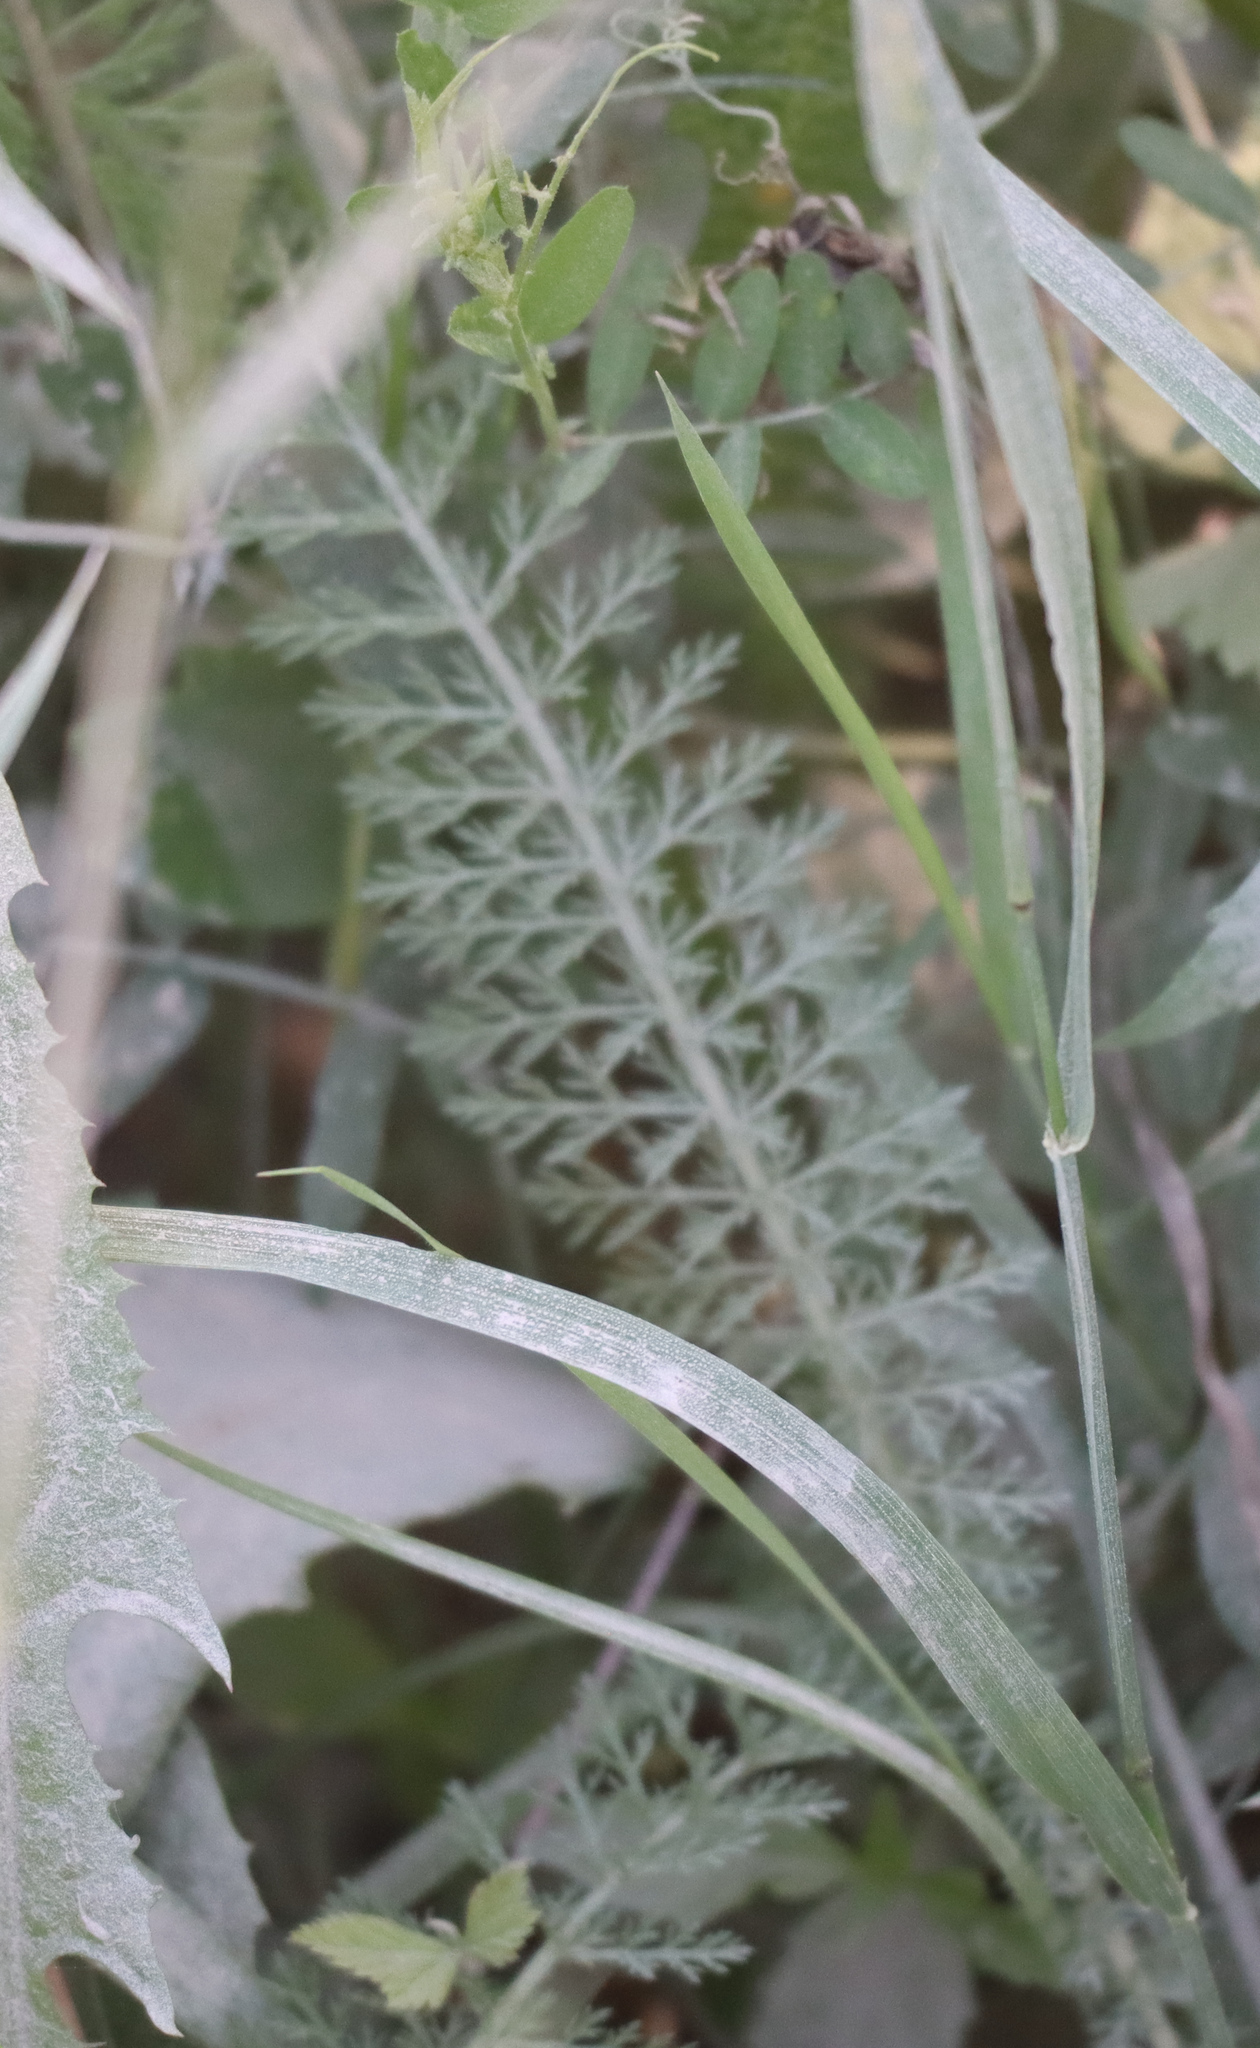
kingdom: Plantae
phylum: Tracheophyta
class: Magnoliopsida
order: Asterales
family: Asteraceae
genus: Achillea
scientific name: Achillea millefolium
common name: Yarrow
